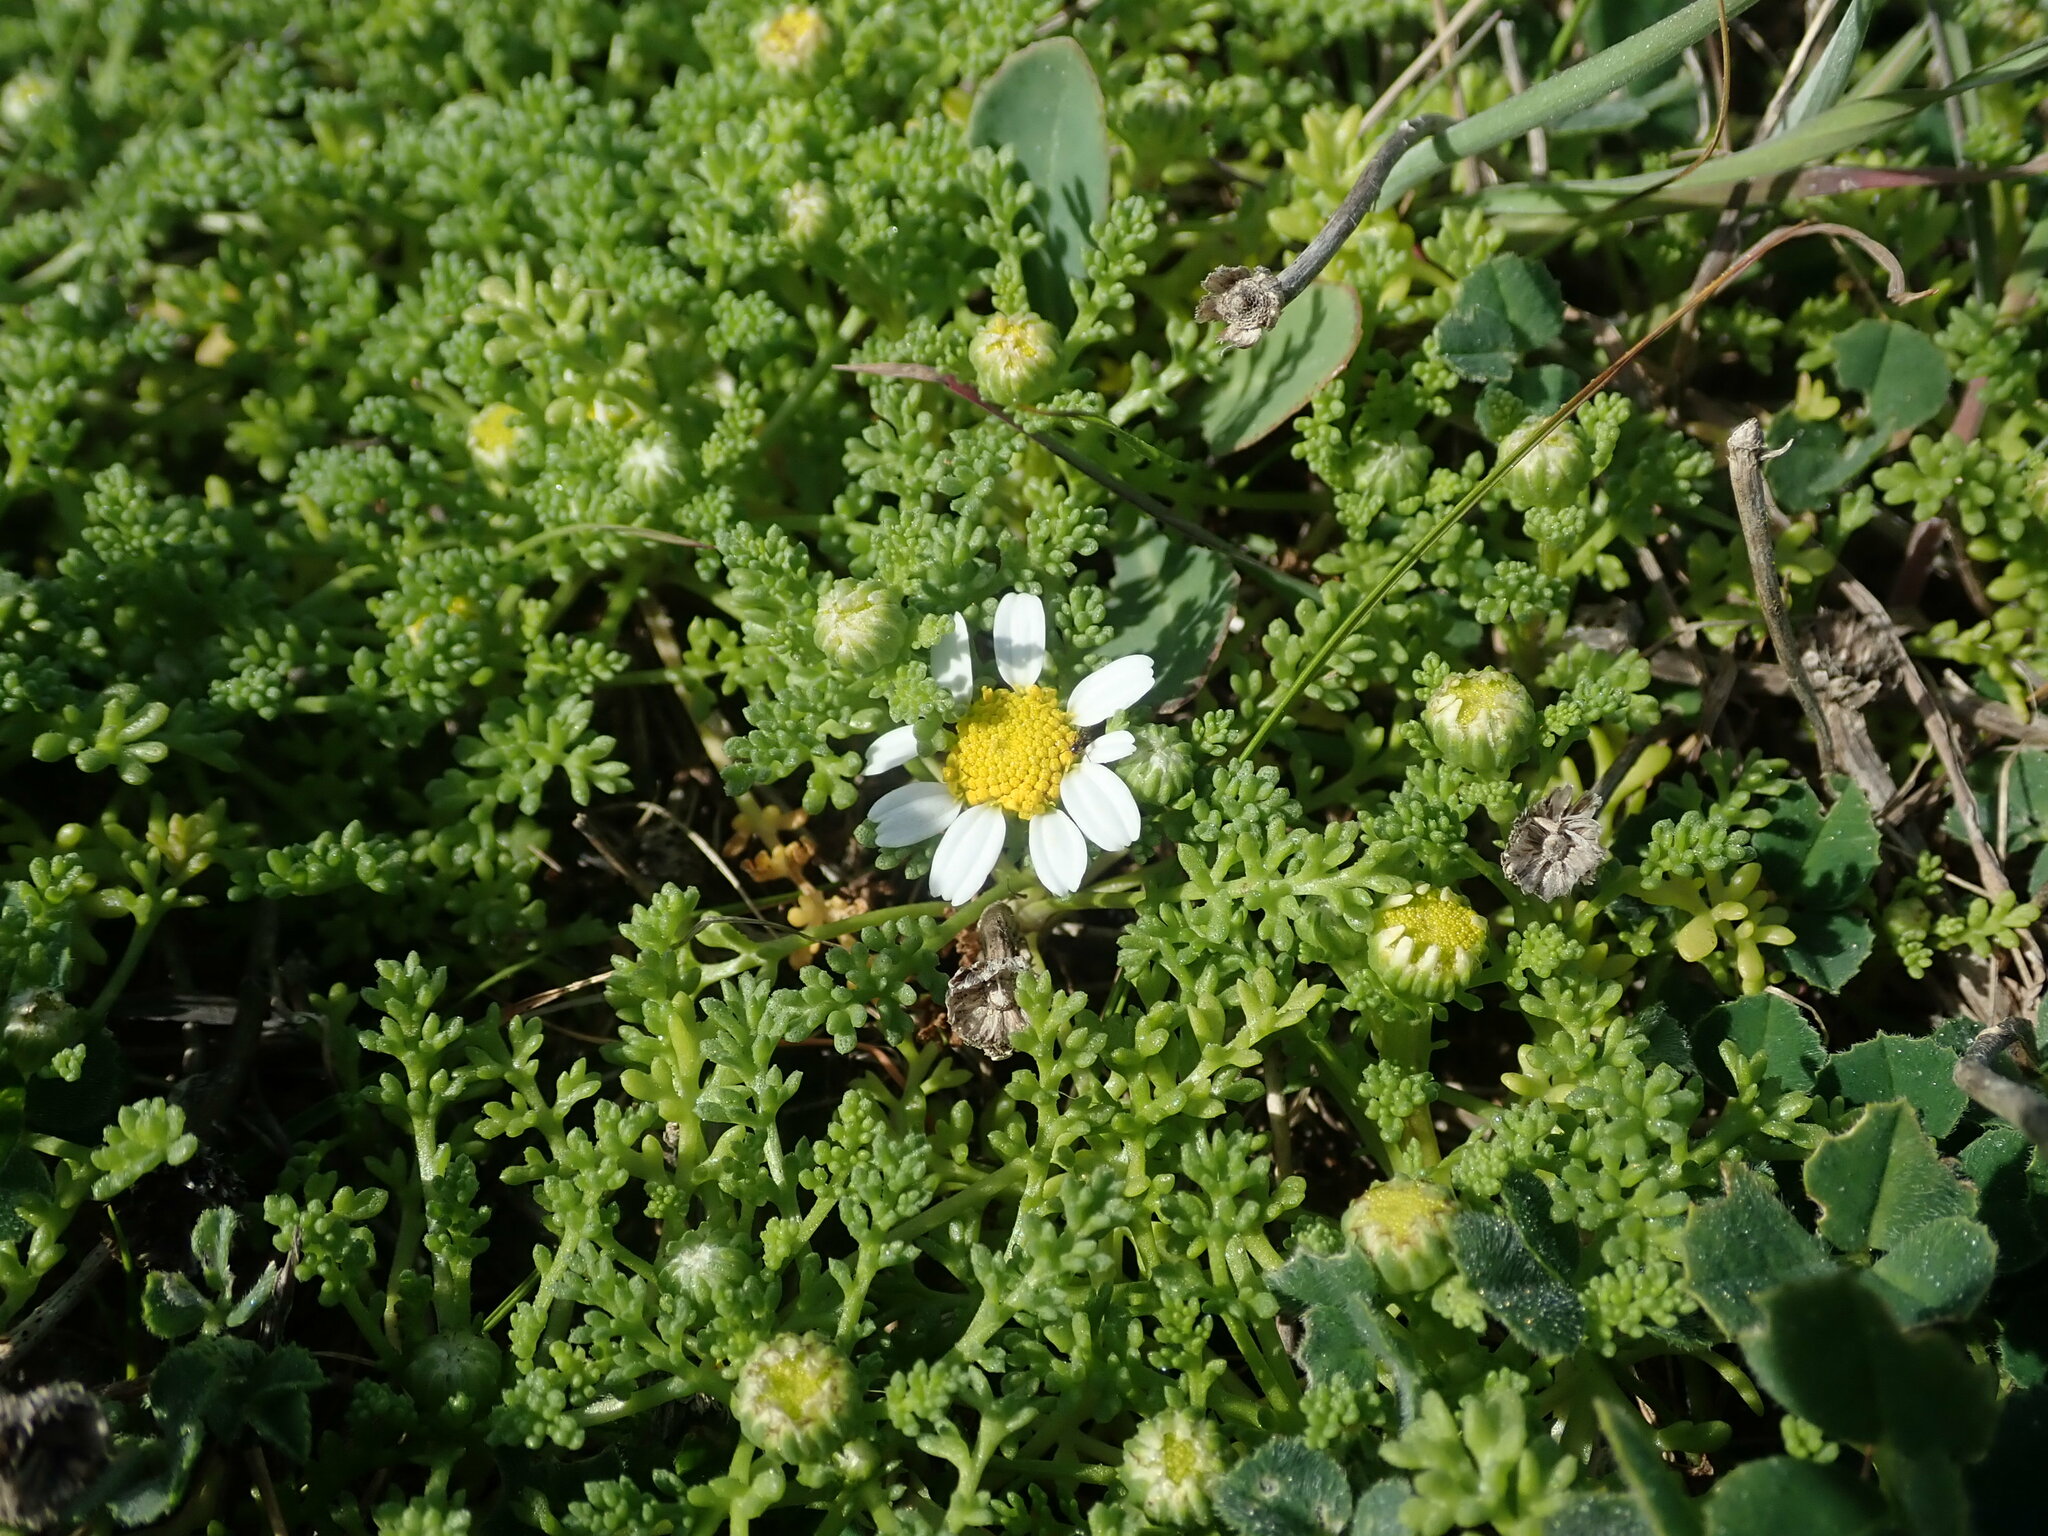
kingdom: Plantae
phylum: Tracheophyta
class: Magnoliopsida
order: Asterales
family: Asteraceae
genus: Anthemis
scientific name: Anthemis secundiramea
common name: Prostrate chamomile
